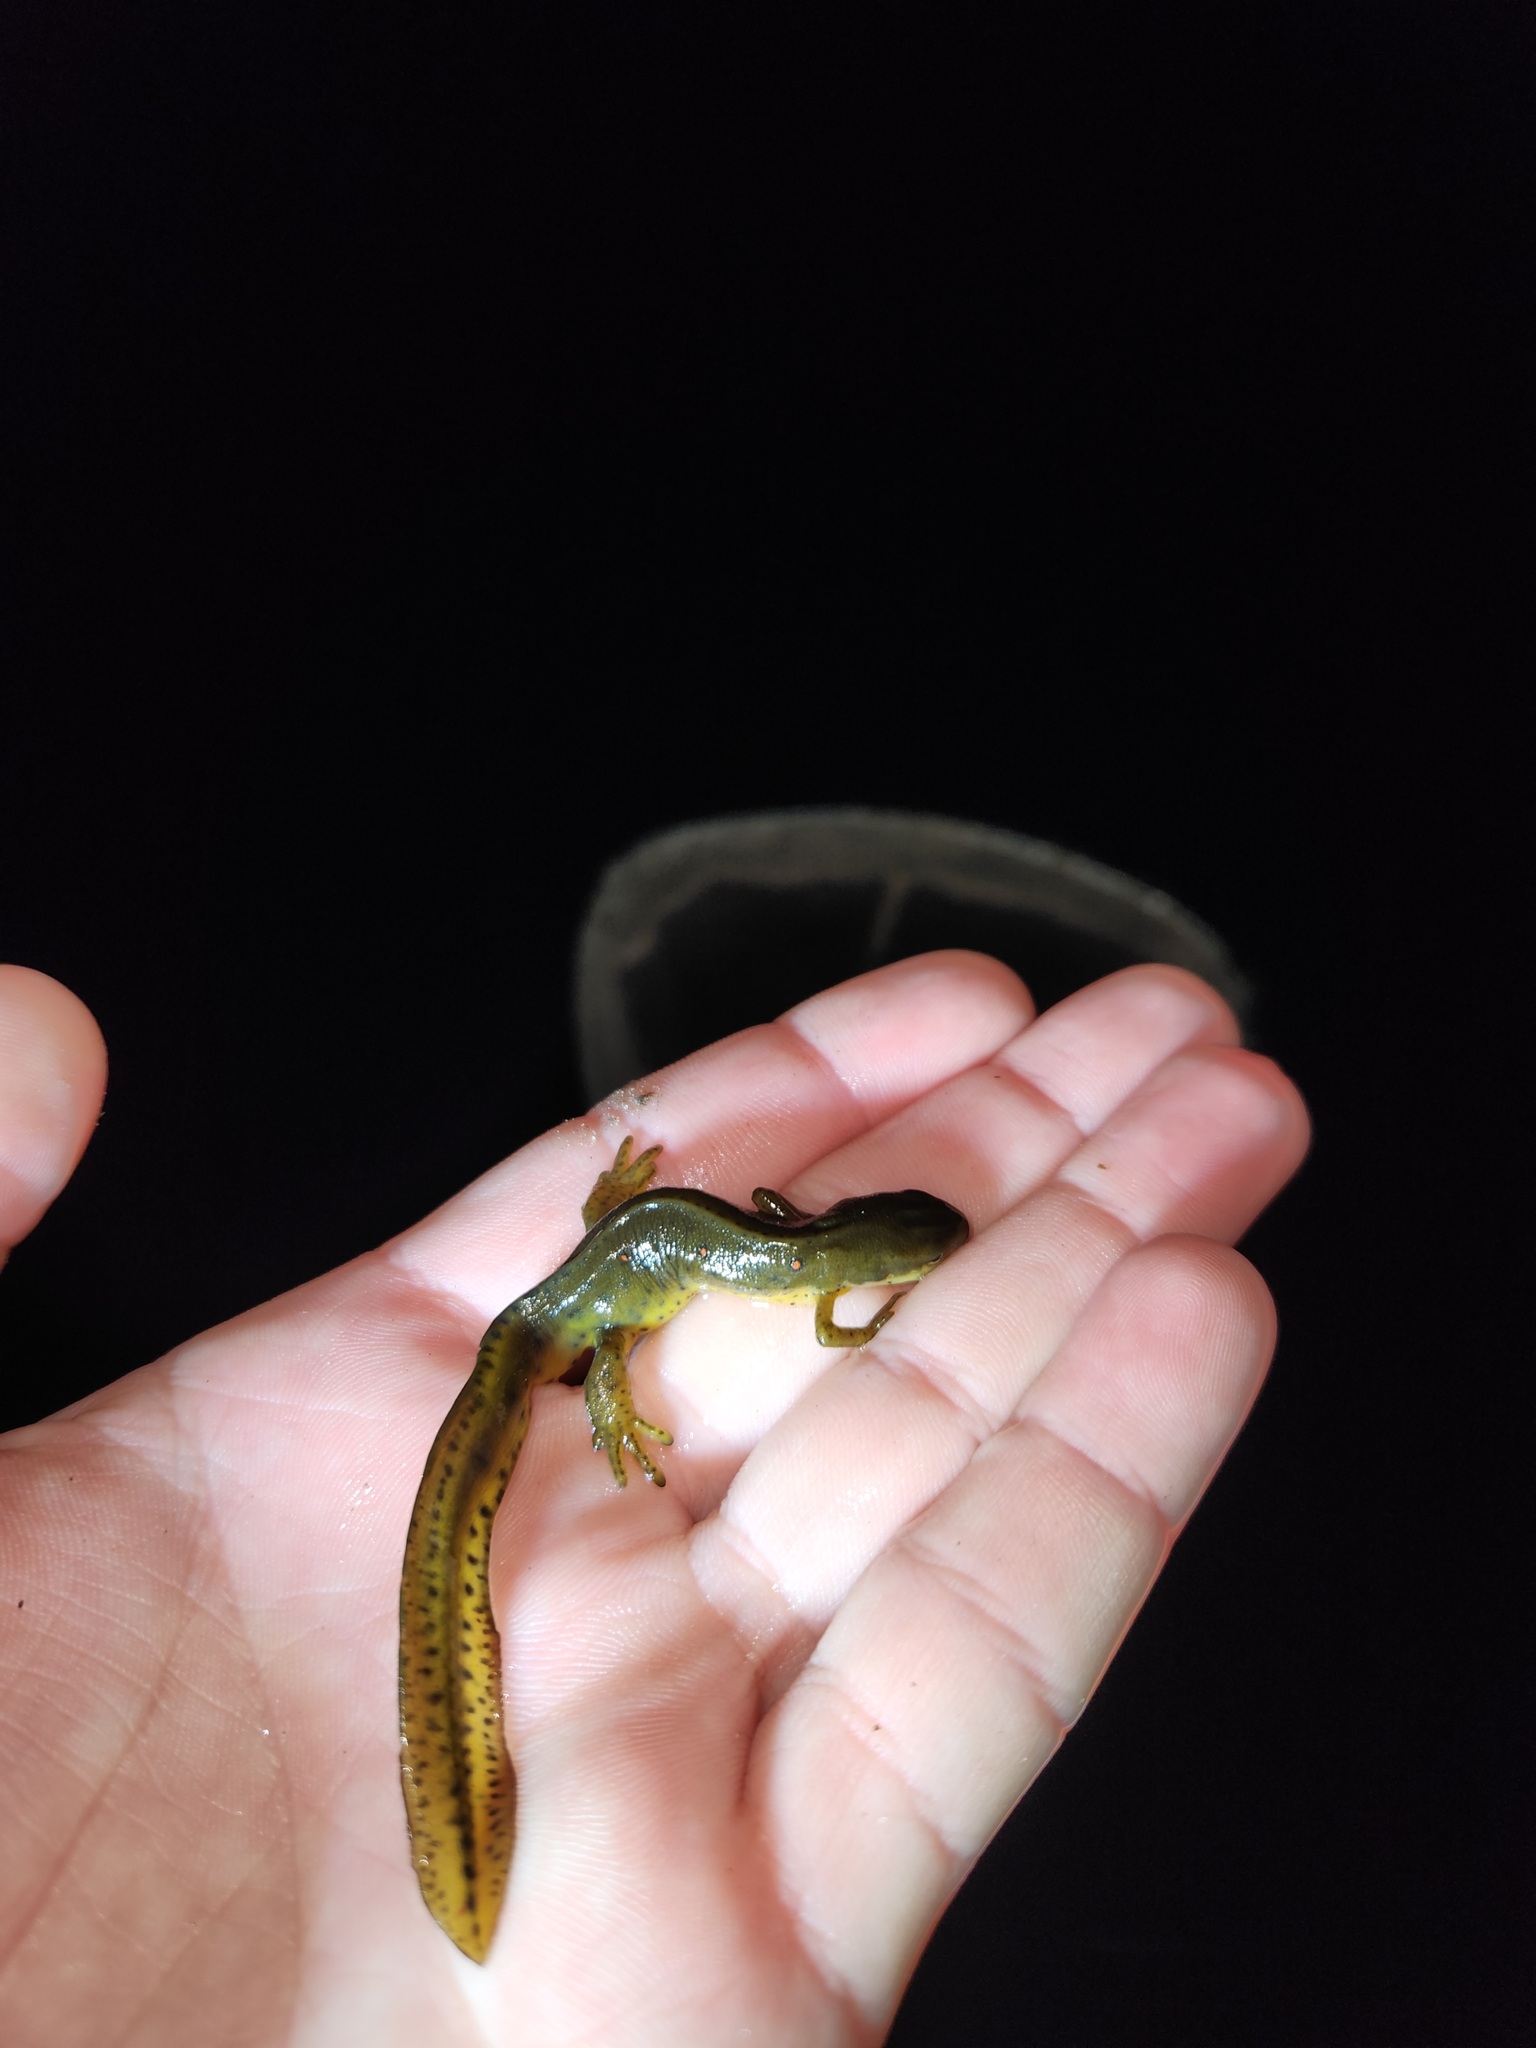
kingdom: Animalia
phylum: Chordata
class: Amphibia
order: Caudata
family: Salamandridae
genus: Notophthalmus
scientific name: Notophthalmus viridescens
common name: Eastern newt
